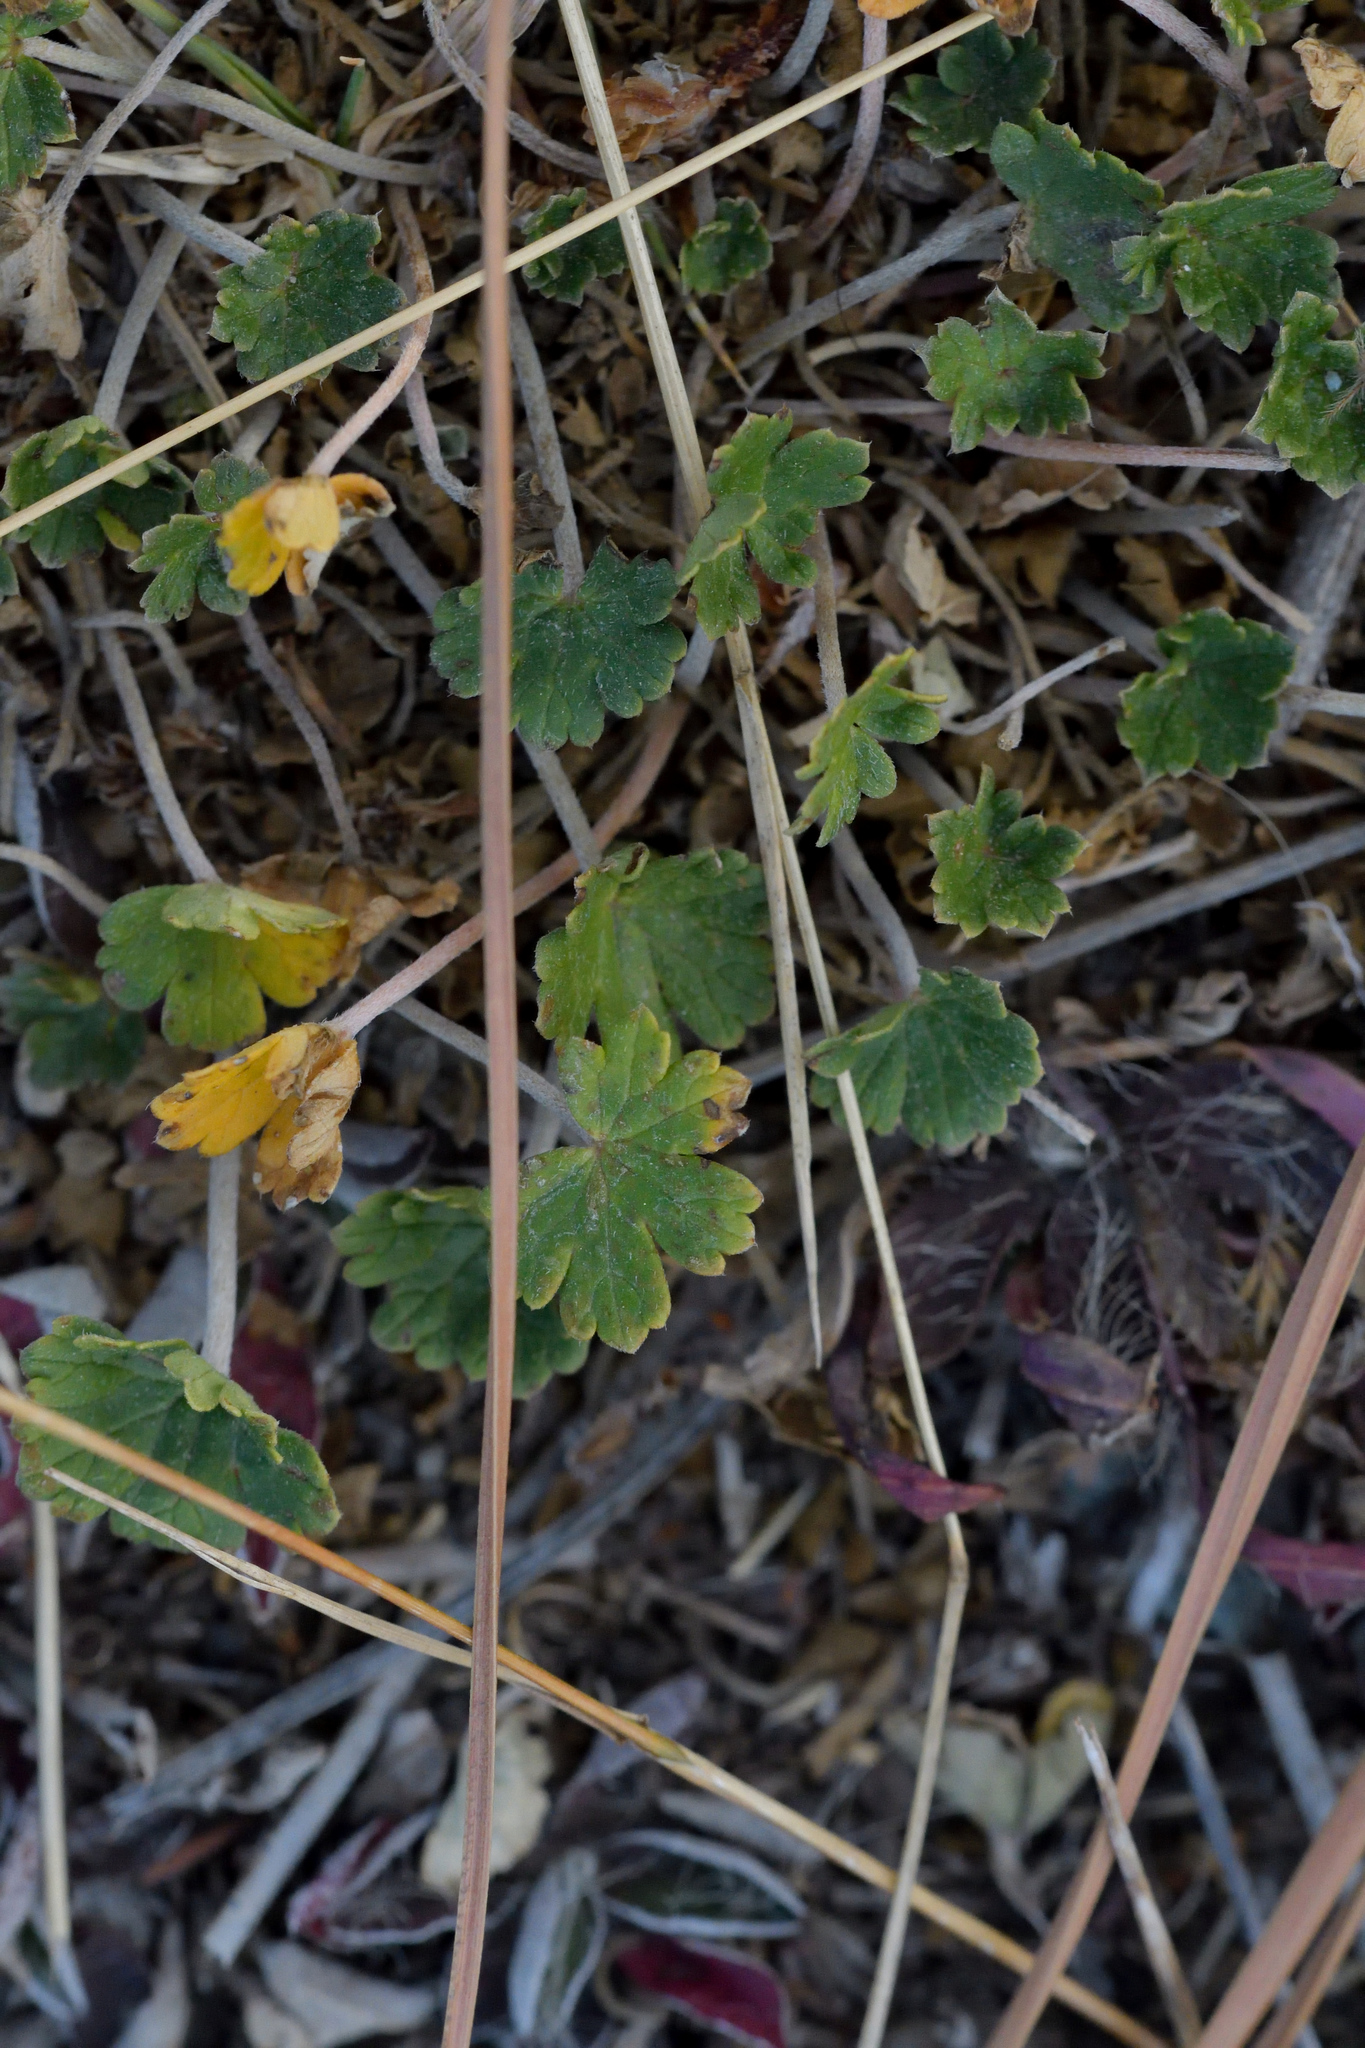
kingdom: Plantae
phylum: Tracheophyta
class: Magnoliopsida
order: Geraniales
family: Geraniaceae
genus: Geranium
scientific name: Geranium brevicaule
